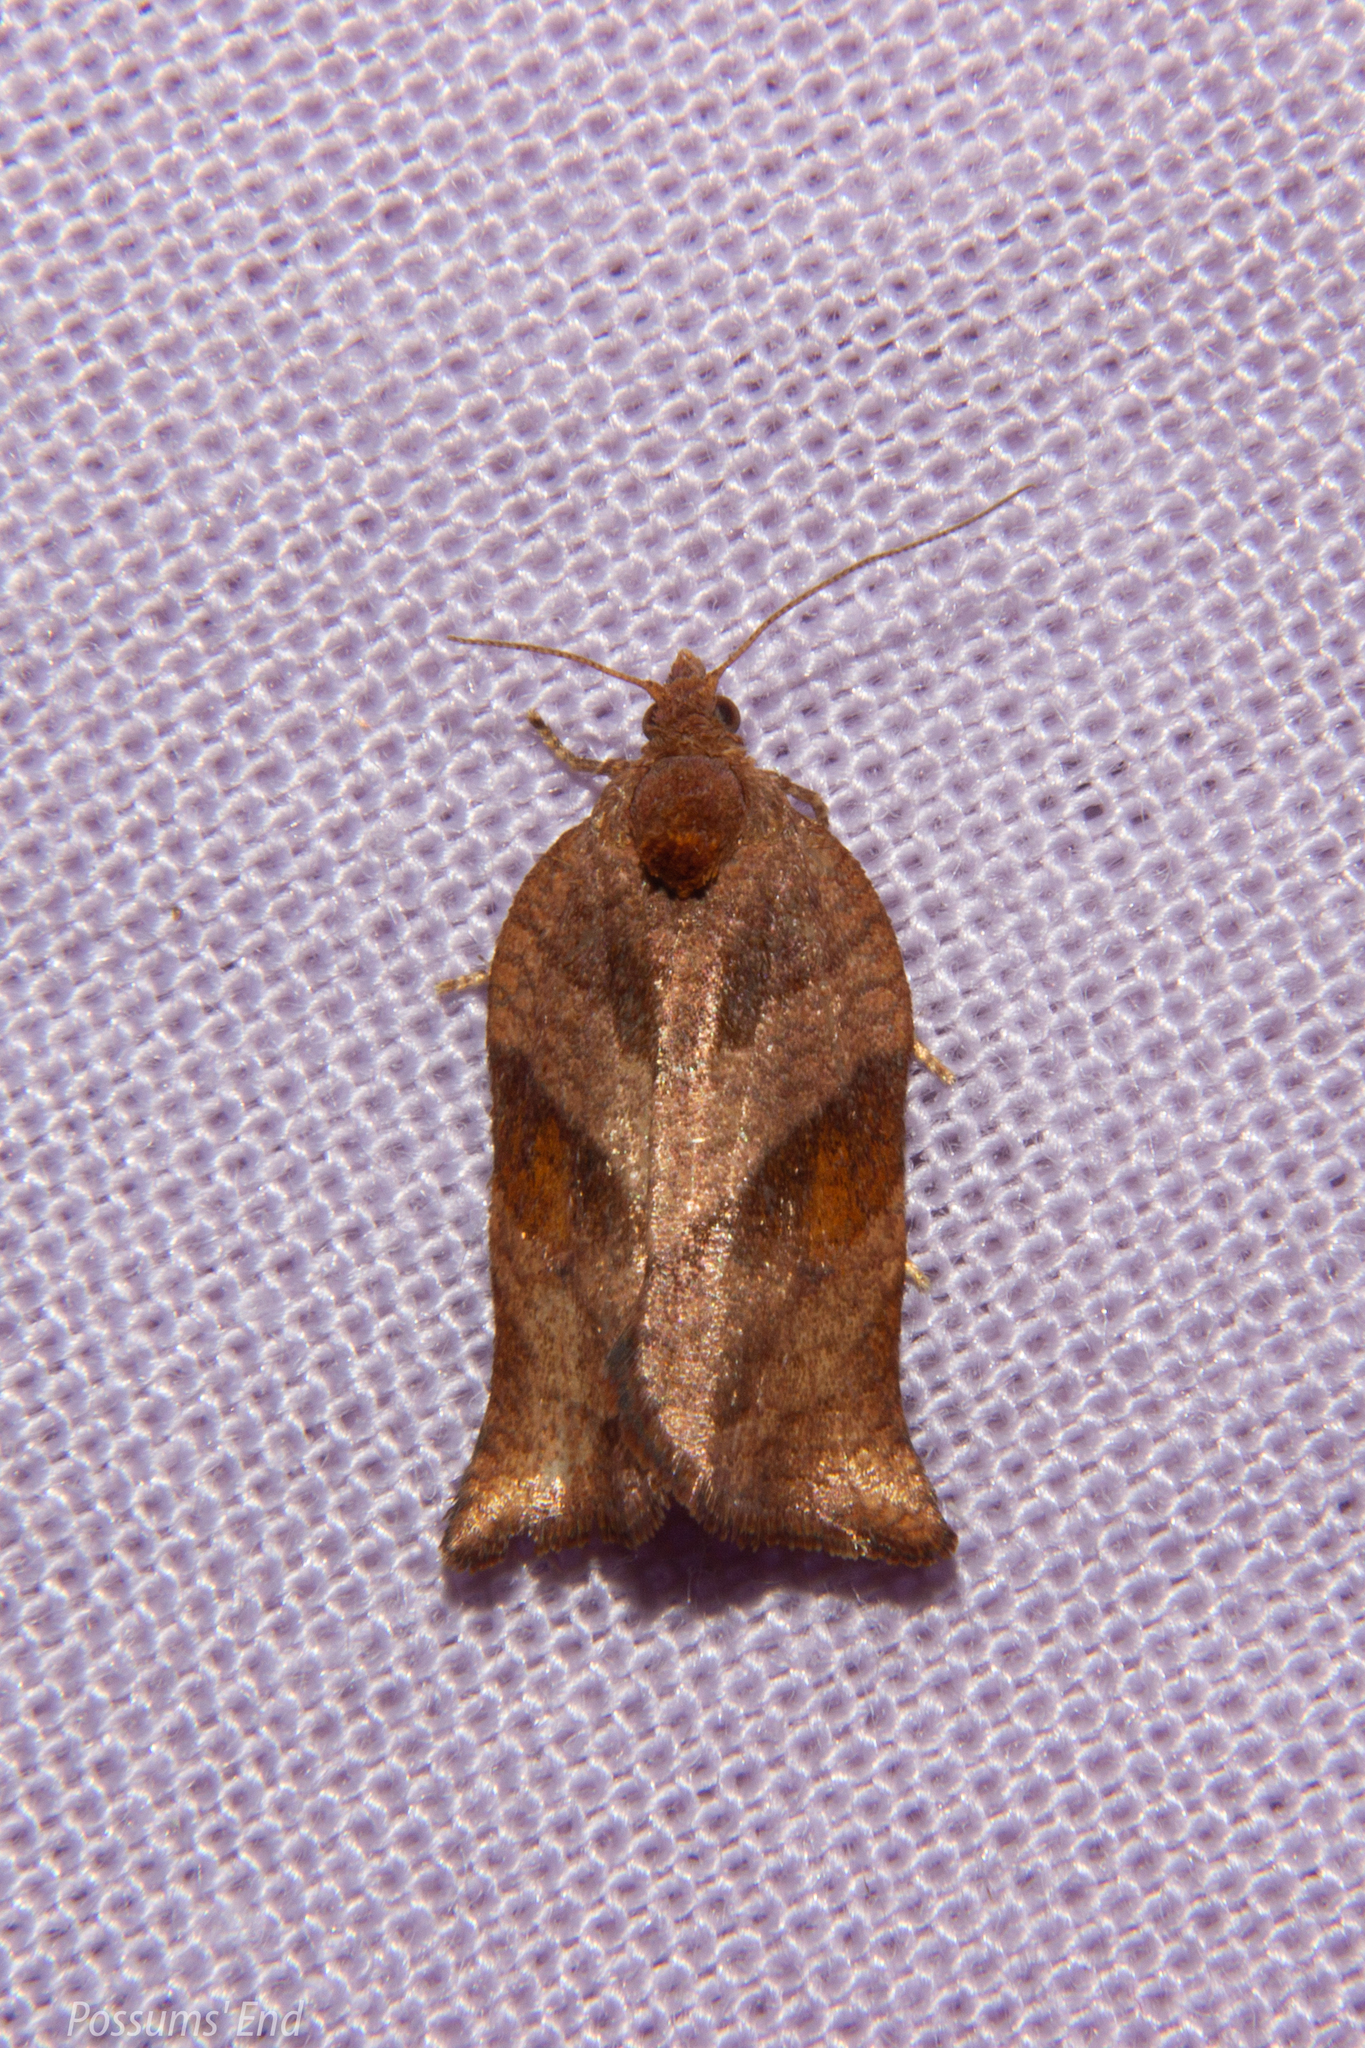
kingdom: Animalia
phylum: Arthropoda
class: Insecta
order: Lepidoptera
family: Tortricidae
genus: Pyrgotis
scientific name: Pyrgotis eudorana
